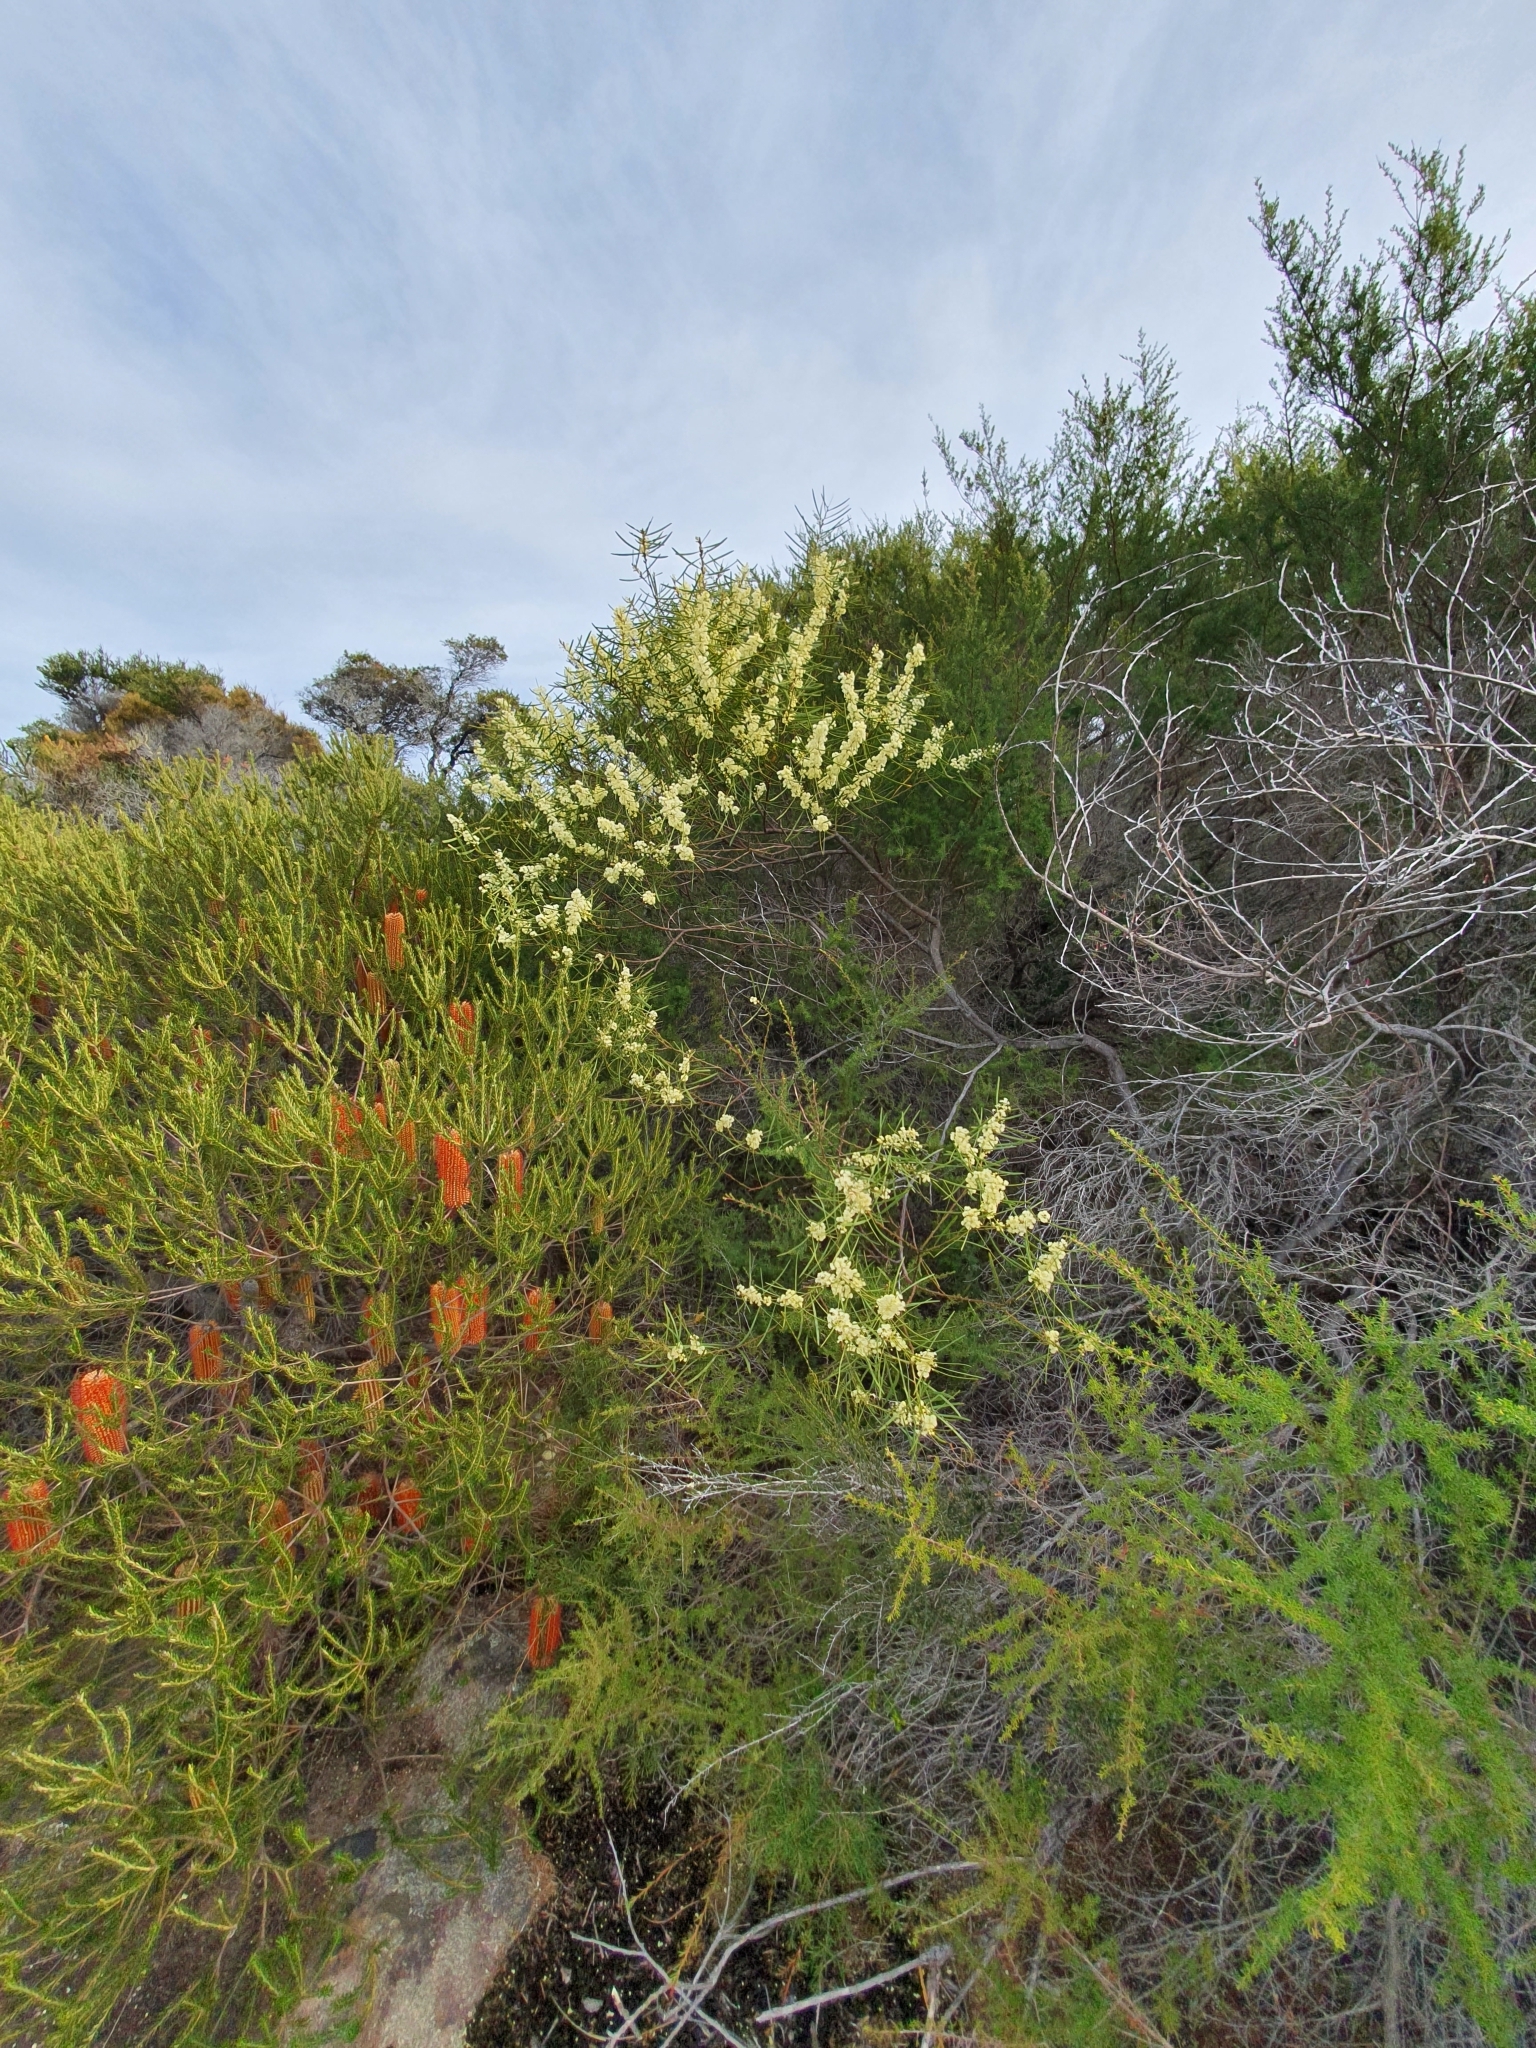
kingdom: Plantae
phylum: Tracheophyta
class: Magnoliopsida
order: Fabales
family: Fabaceae
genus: Acacia
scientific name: Acacia suaveolens
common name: Sweet acacia
